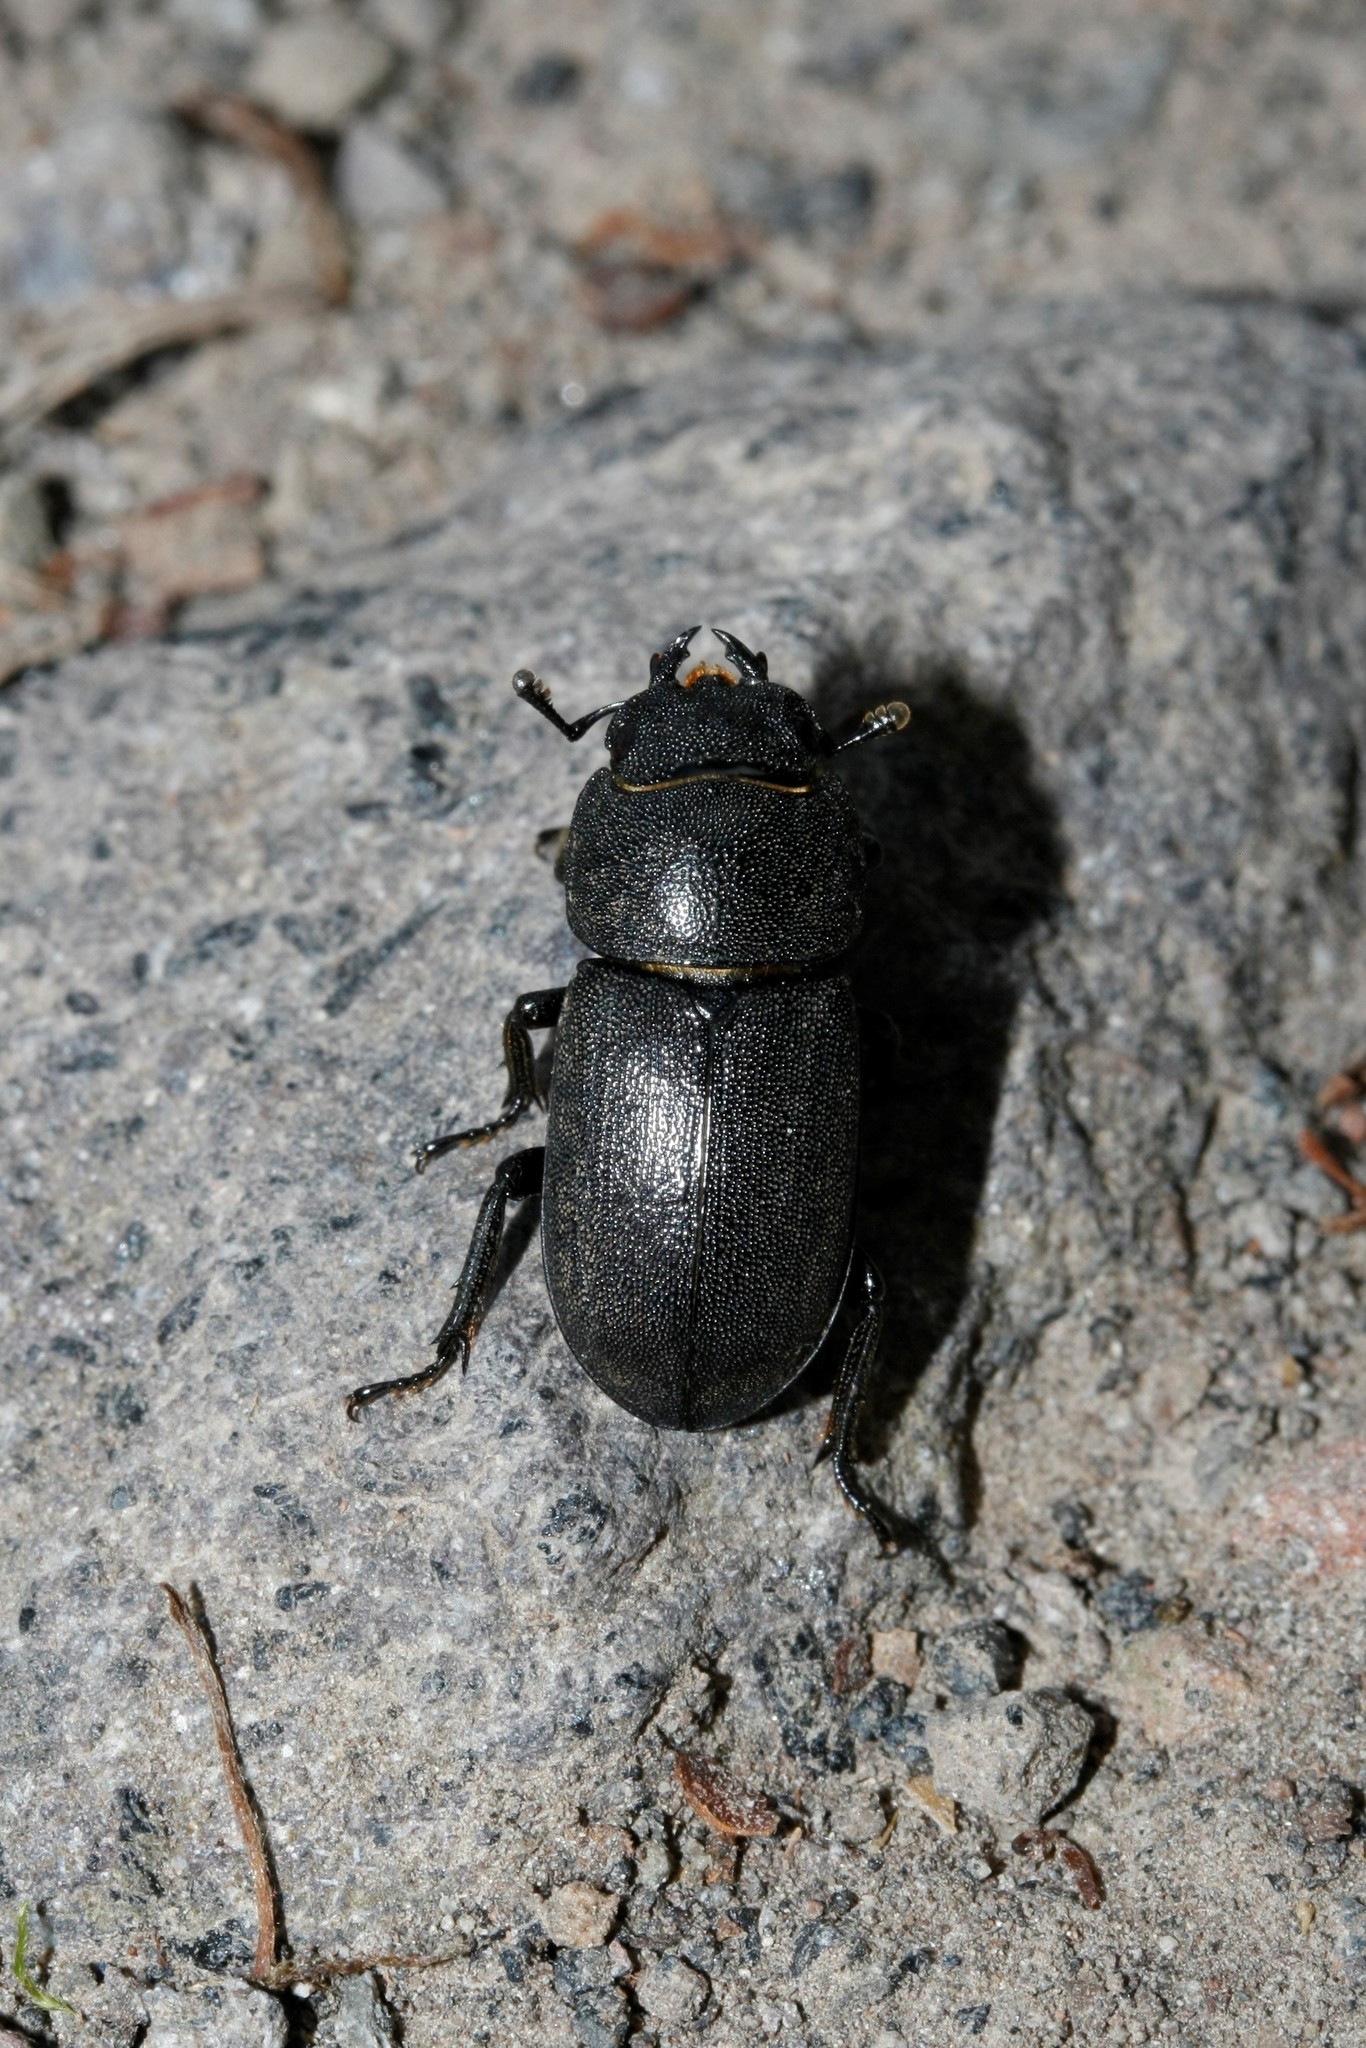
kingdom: Animalia
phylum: Arthropoda
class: Insecta
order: Coleoptera
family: Lucanidae
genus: Dorcus
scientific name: Dorcus parallelipipedus
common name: Lesser stag beetle
